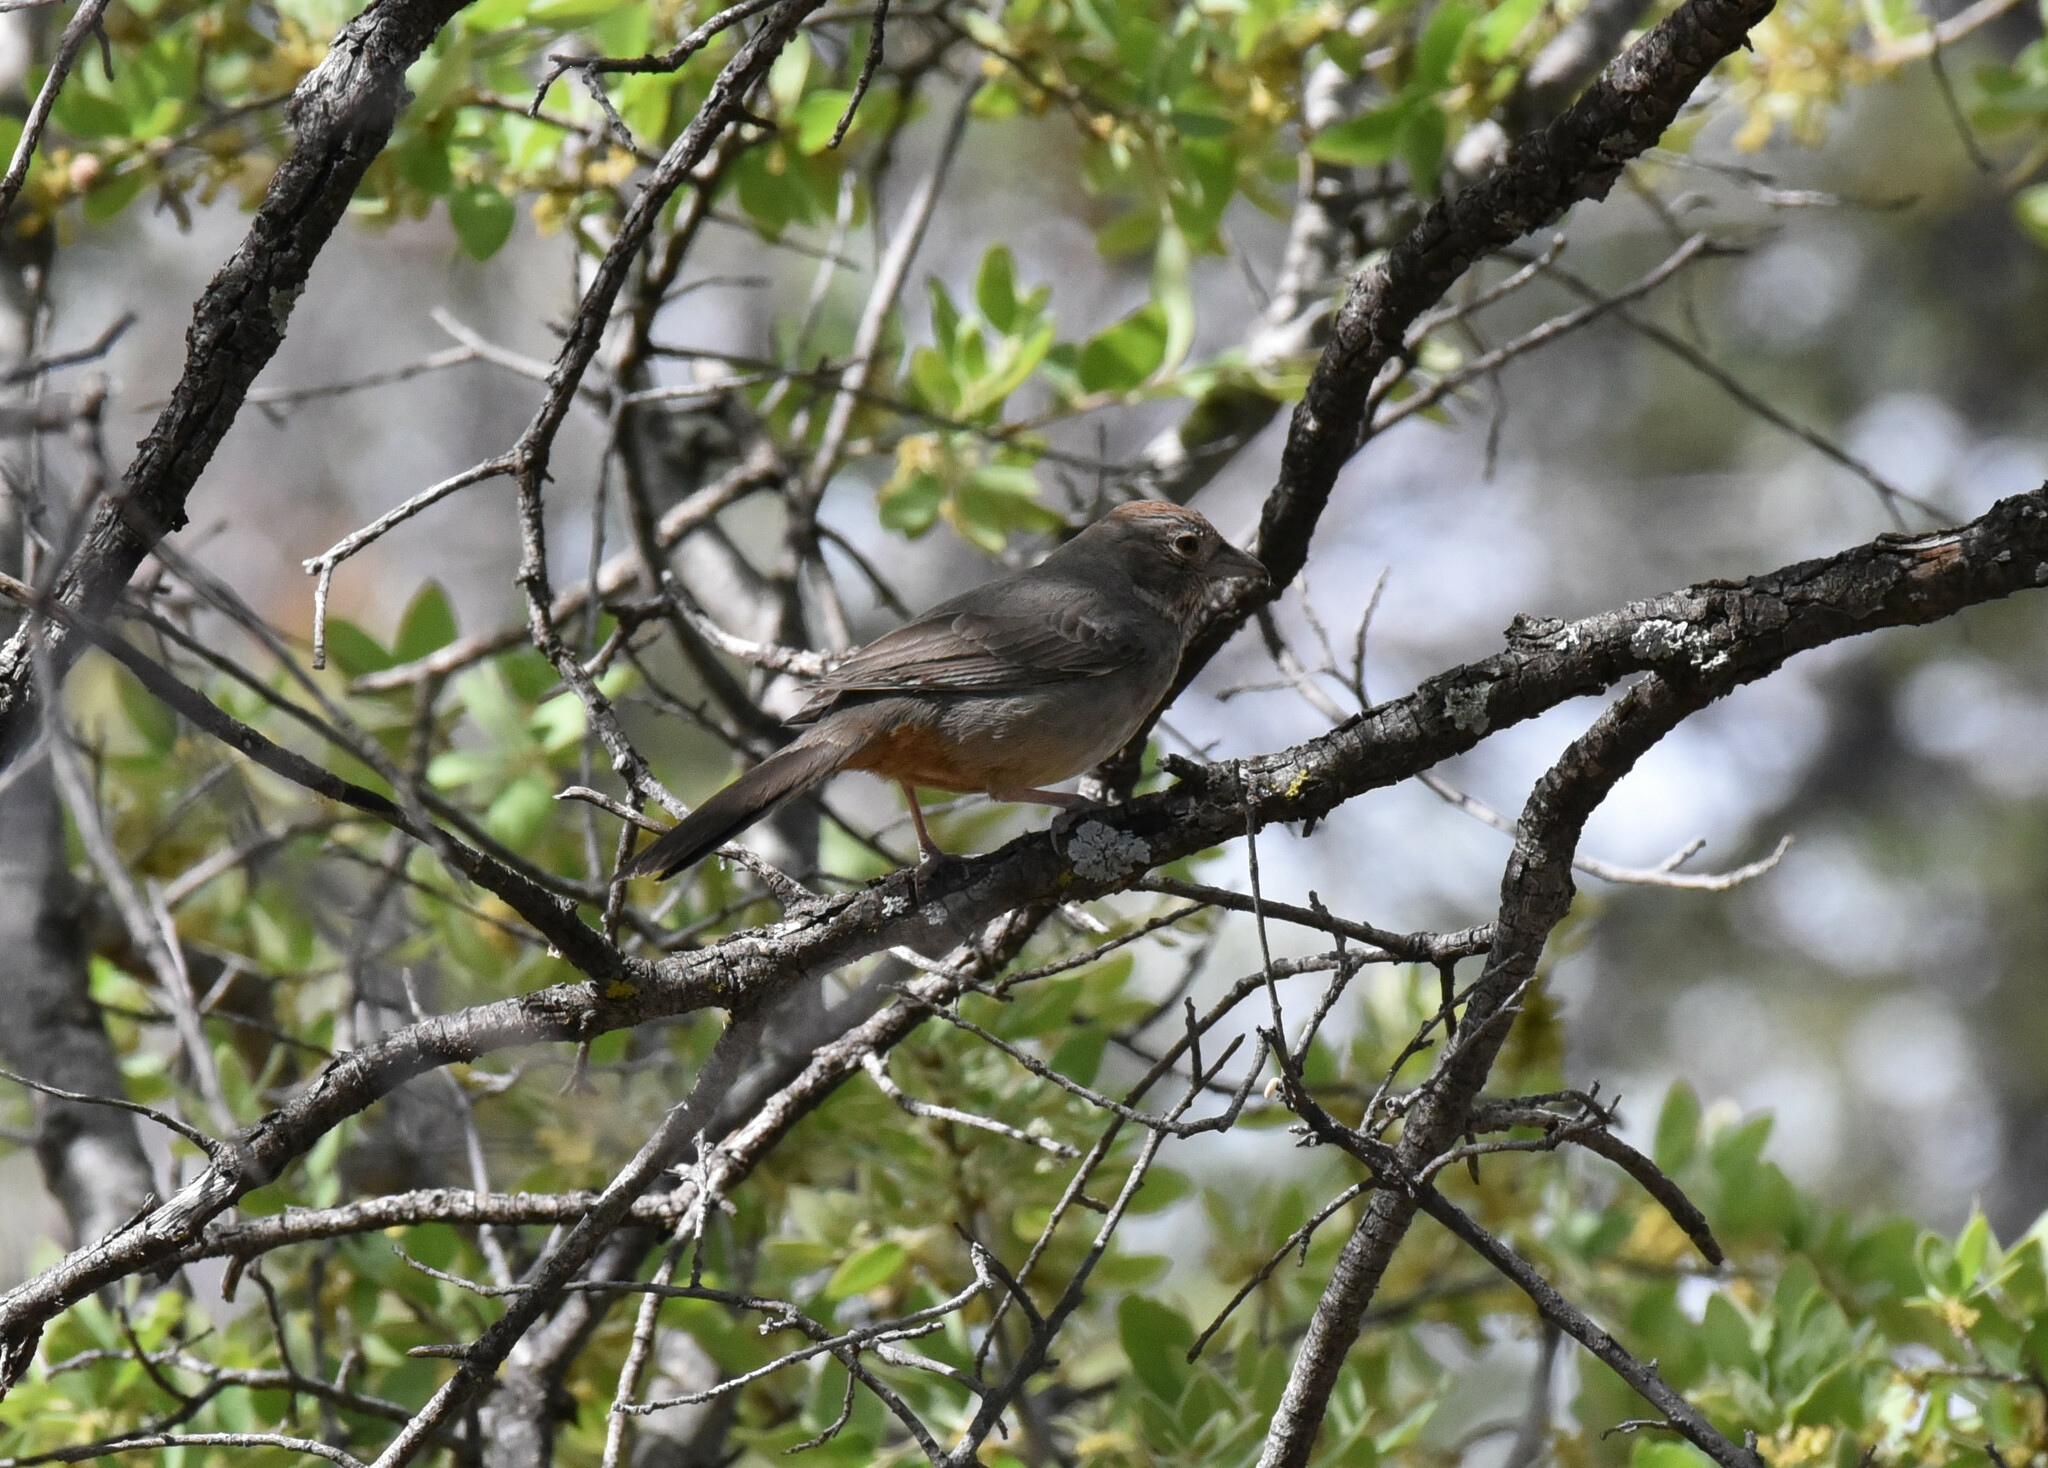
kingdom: Animalia
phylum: Chordata
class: Aves
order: Passeriformes
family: Passerellidae
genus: Melozone
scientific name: Melozone fusca
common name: Canyon towhee
